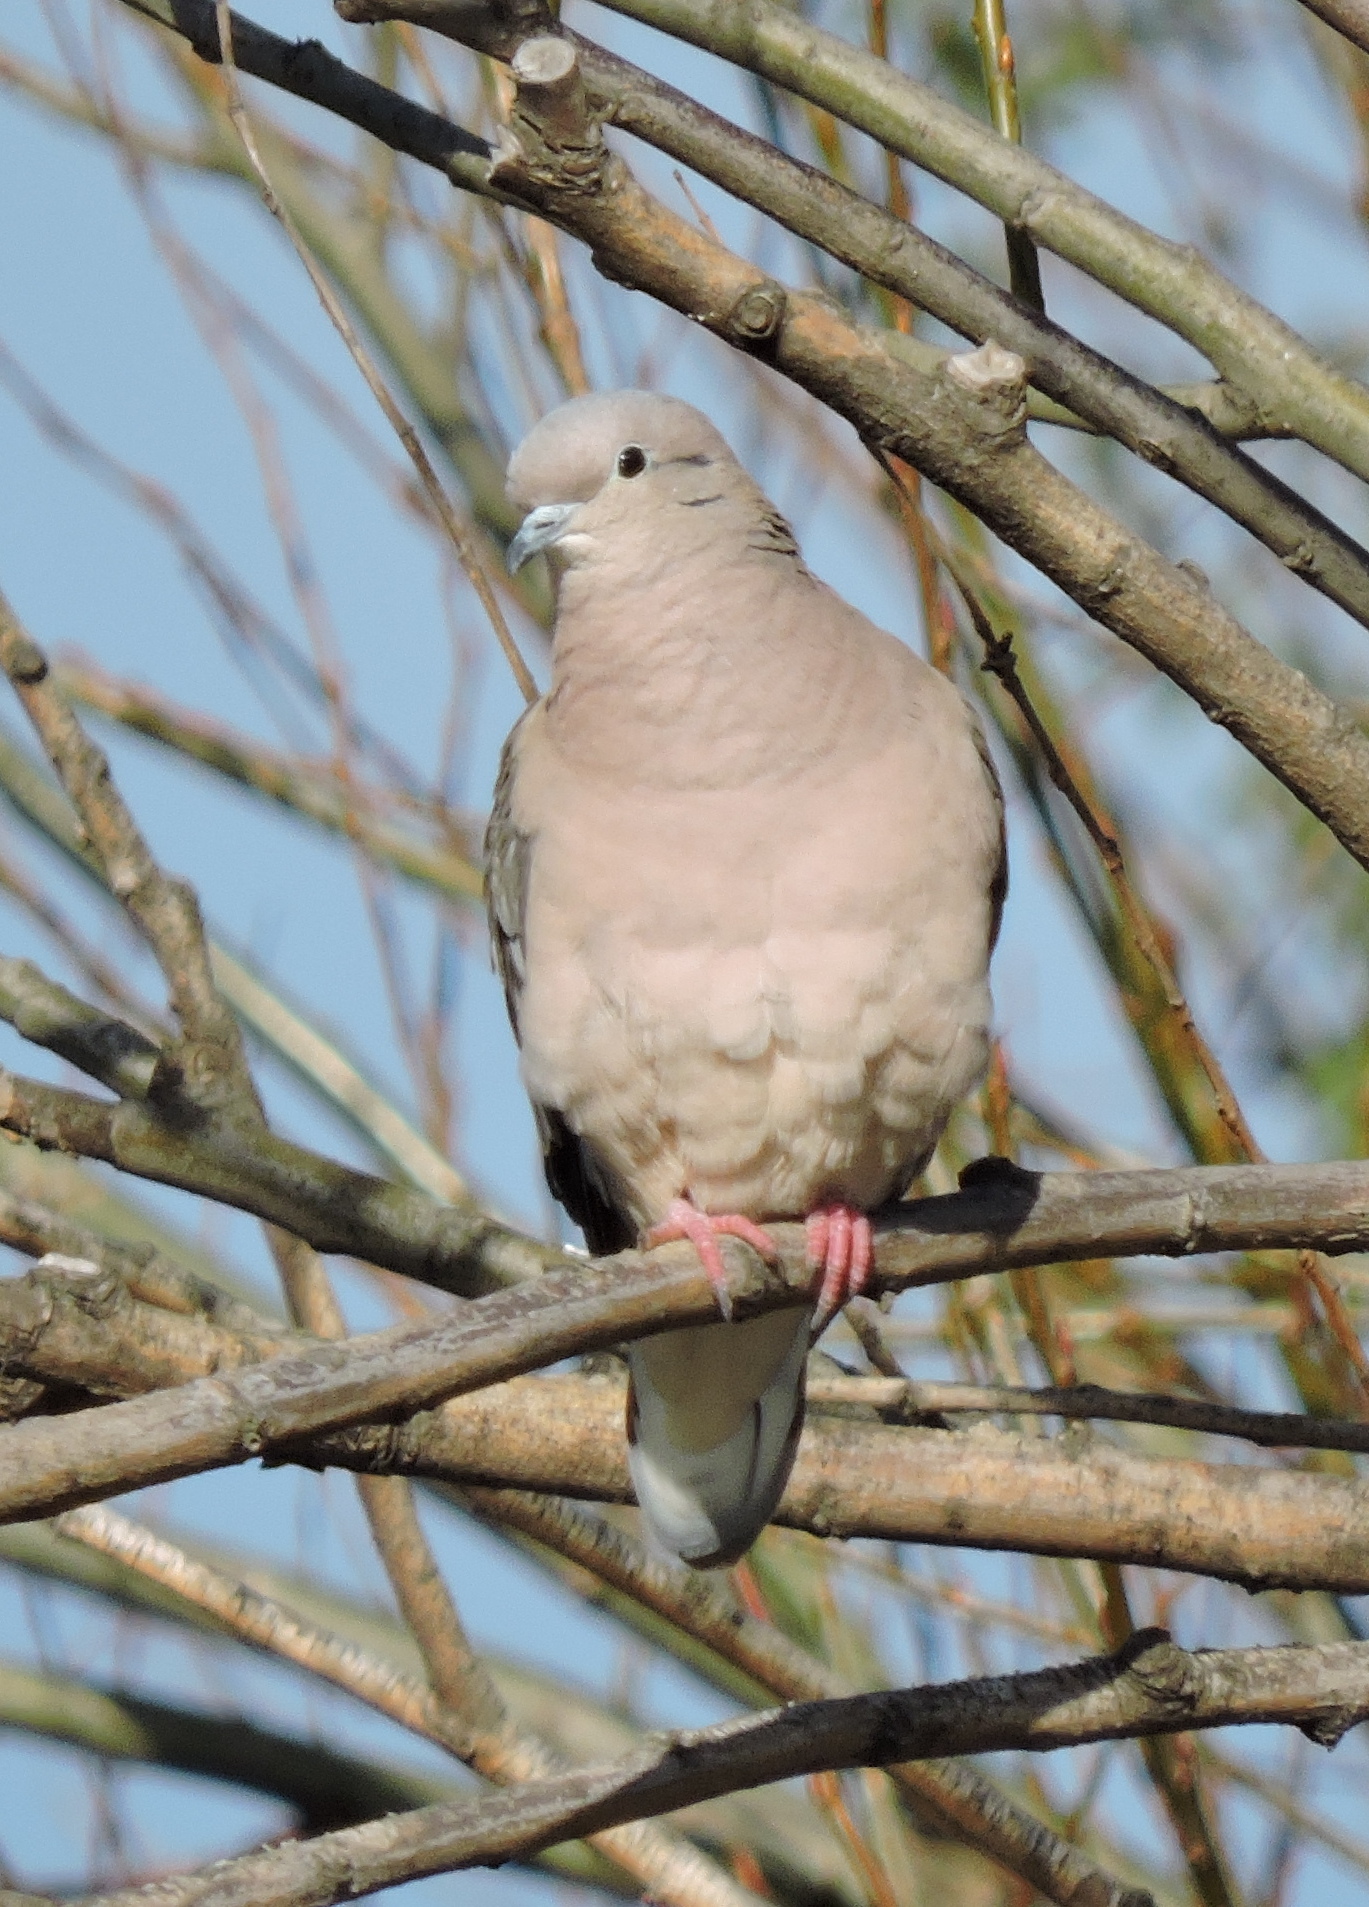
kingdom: Animalia
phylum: Chordata
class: Aves
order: Columbiformes
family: Columbidae
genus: Zenaida
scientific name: Zenaida auriculata
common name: Eared dove
